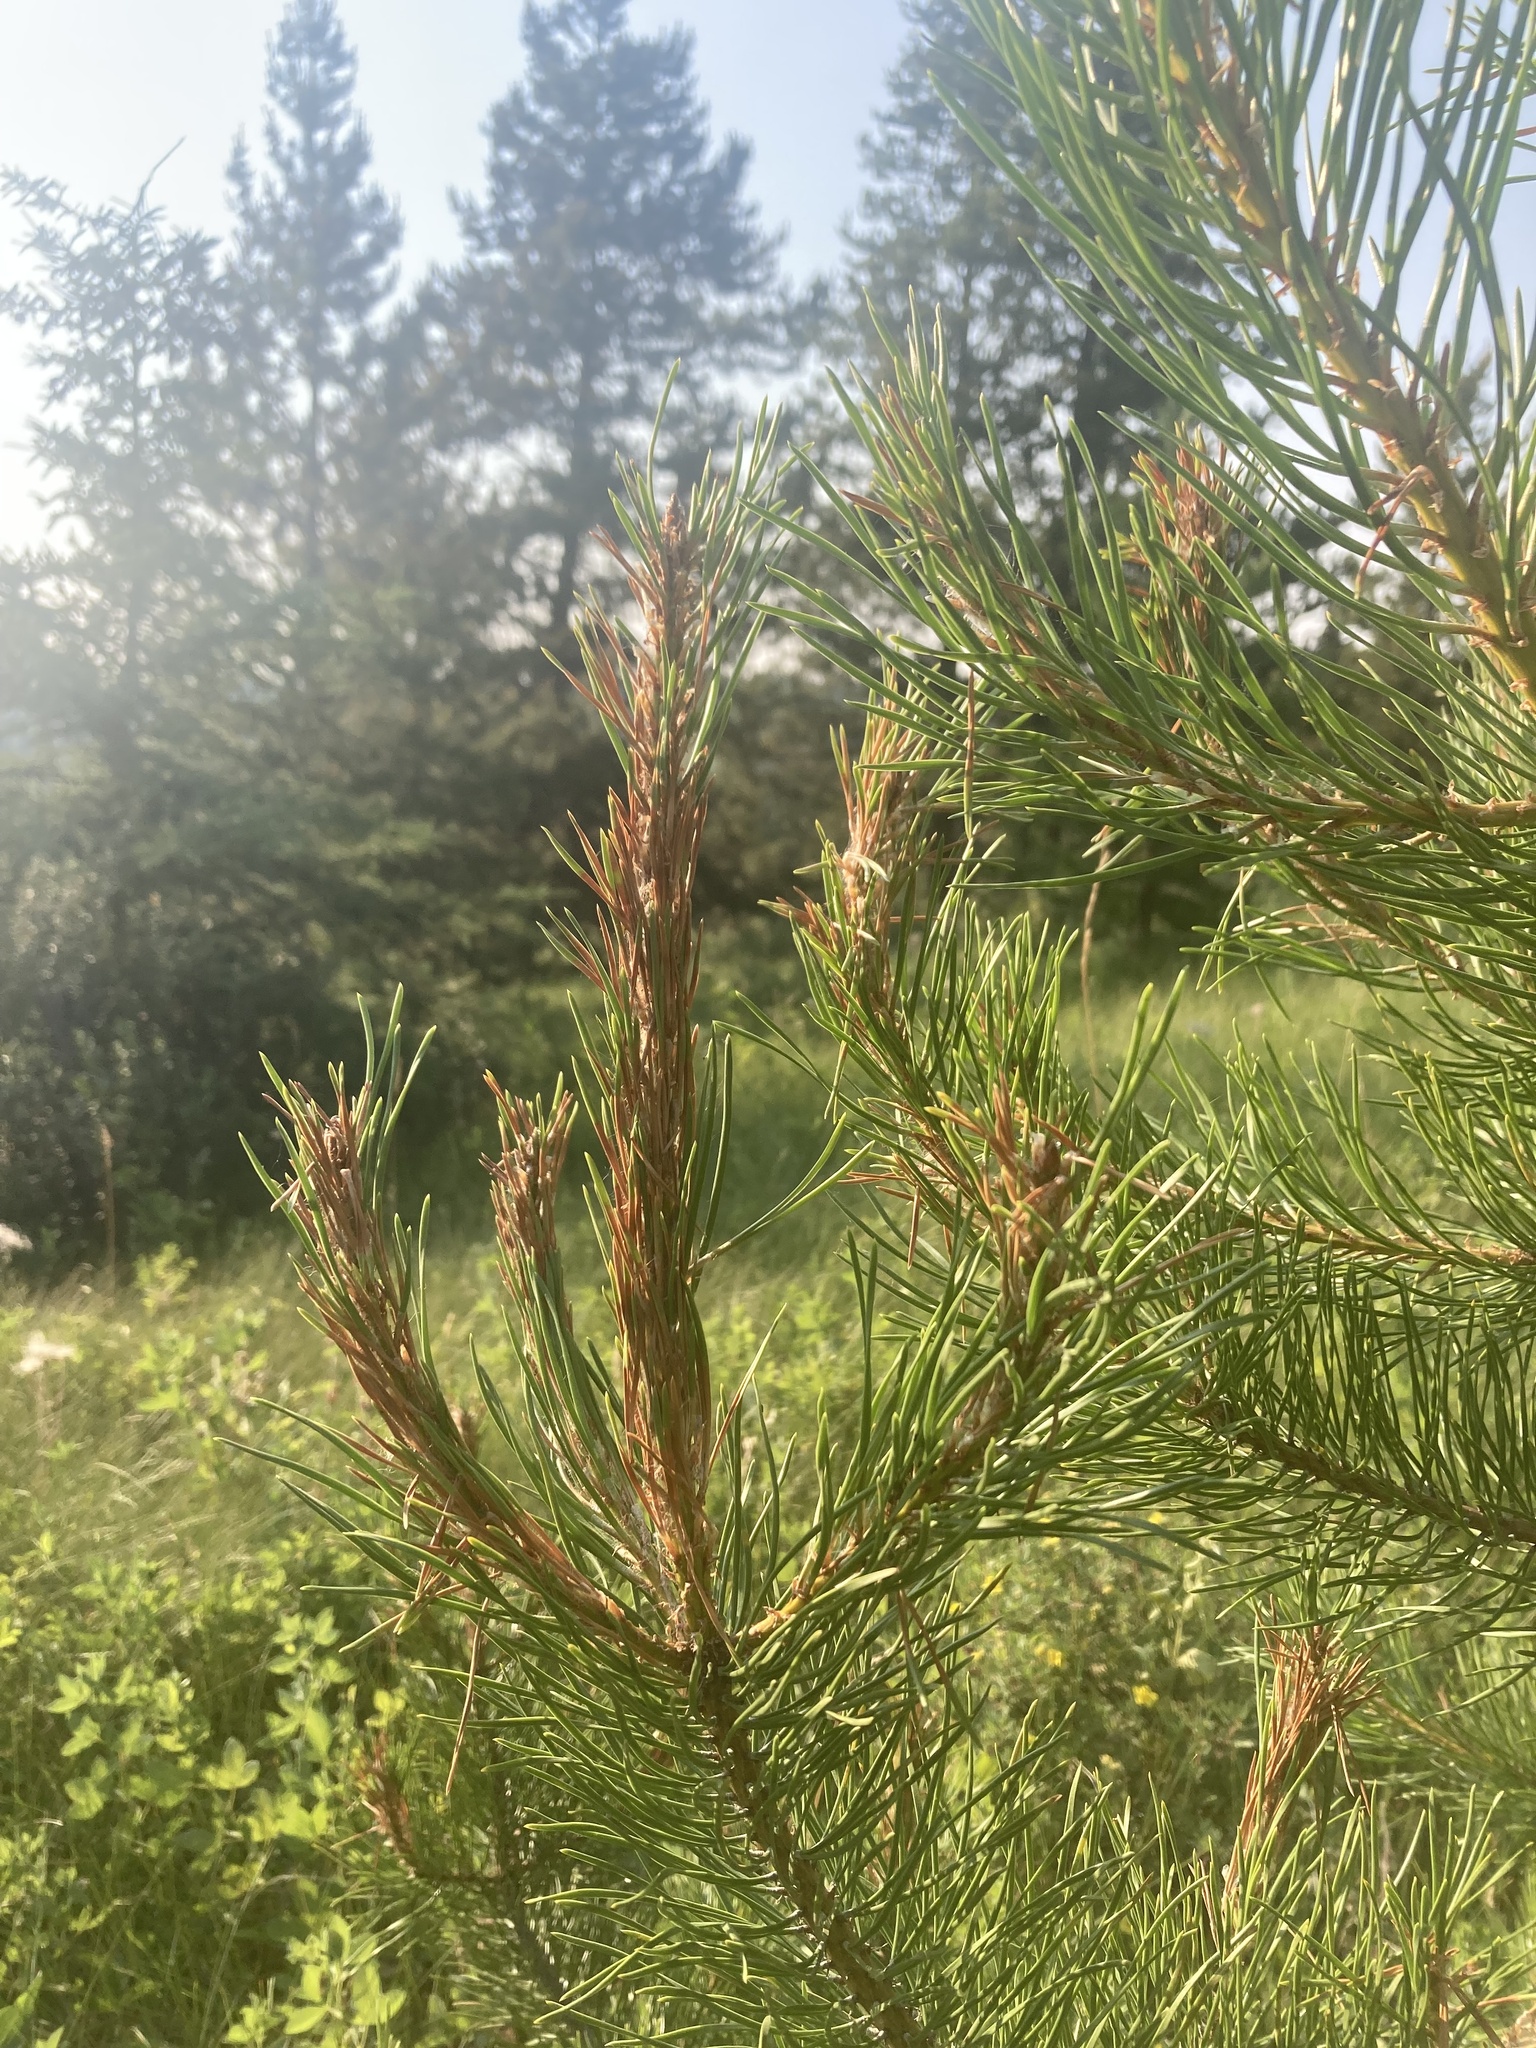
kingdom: Plantae
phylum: Tracheophyta
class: Pinopsida
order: Pinales
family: Pinaceae
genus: Pinus
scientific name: Pinus contorta
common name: Lodgepole pine
